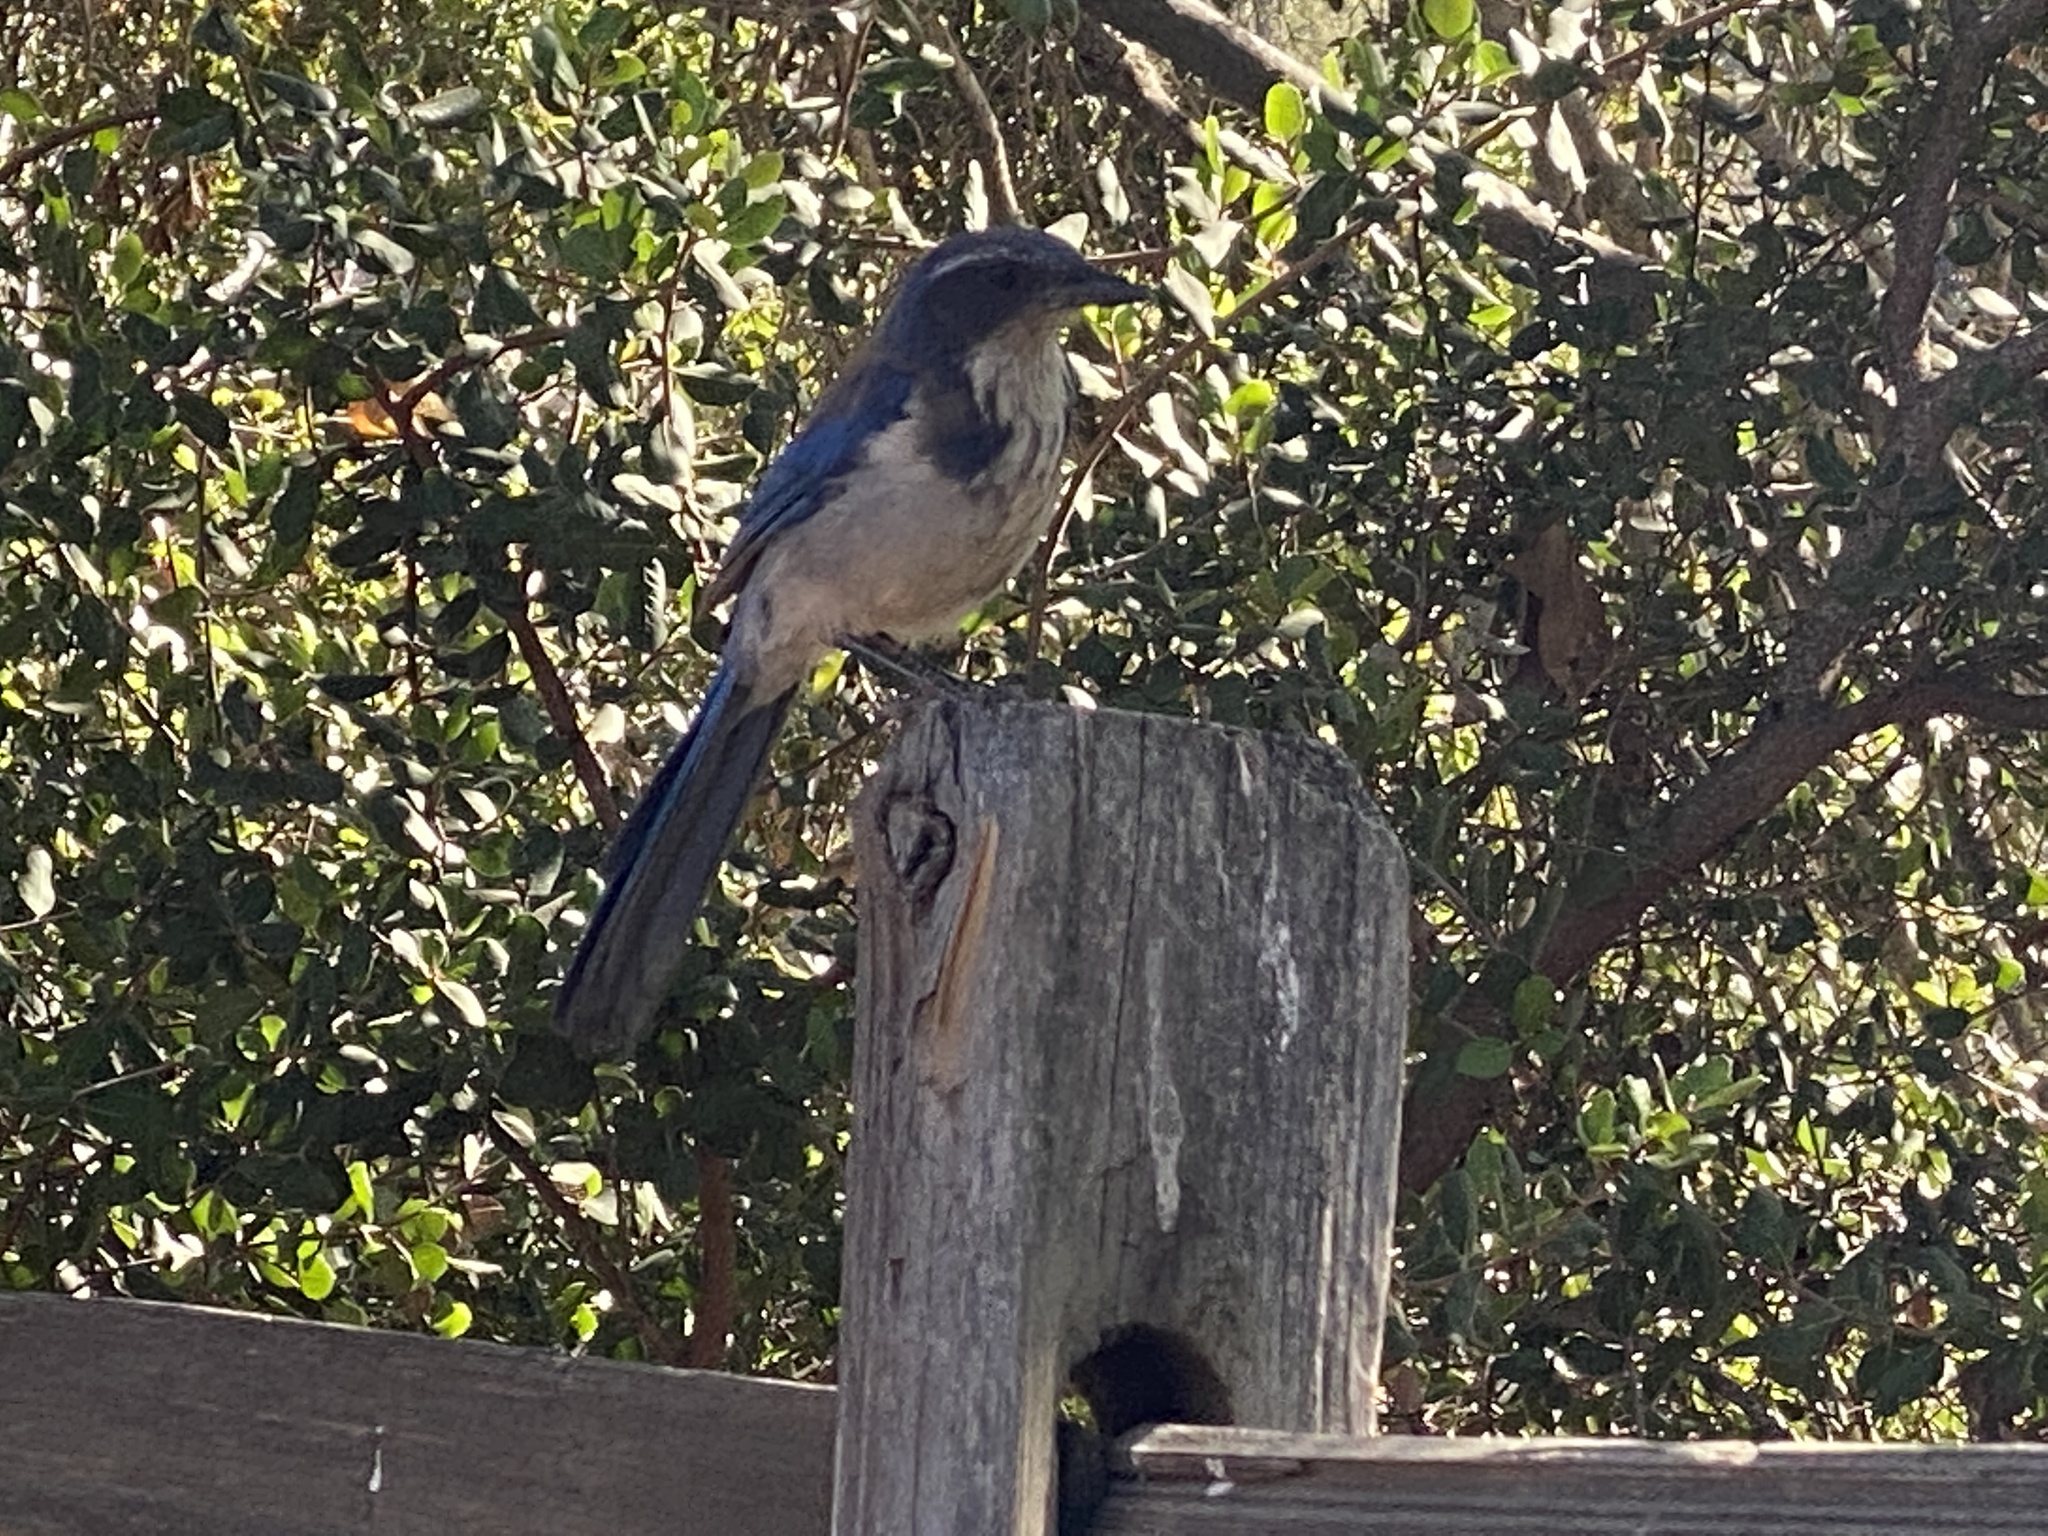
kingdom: Animalia
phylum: Chordata
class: Aves
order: Passeriformes
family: Corvidae
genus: Aphelocoma
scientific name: Aphelocoma californica
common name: California scrub-jay
